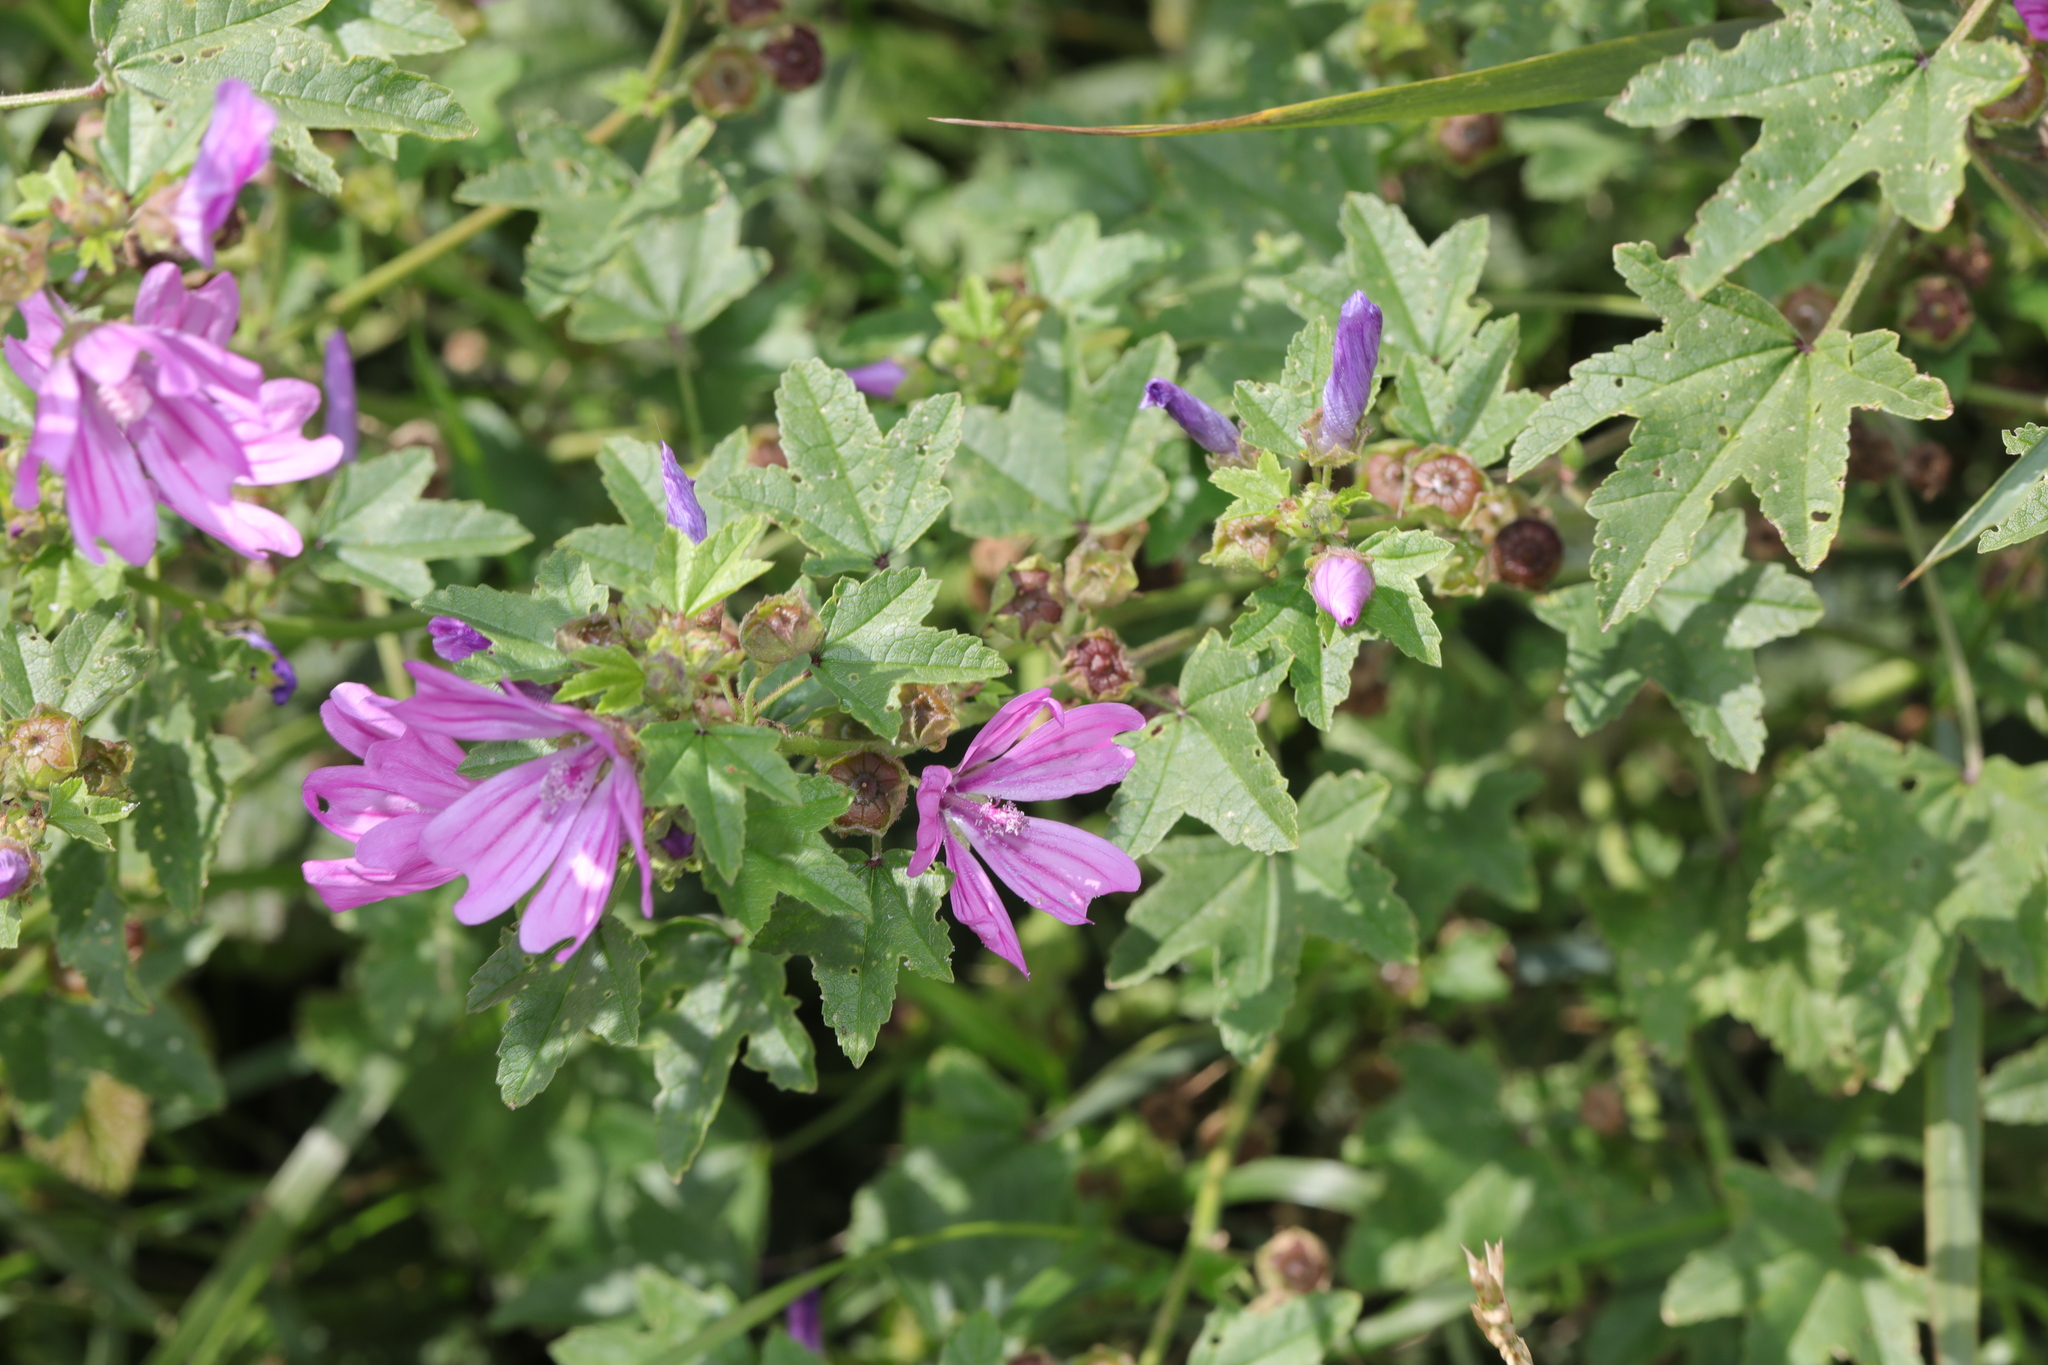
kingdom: Plantae
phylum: Tracheophyta
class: Magnoliopsida
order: Malvales
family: Malvaceae
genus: Malva
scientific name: Malva sylvestris
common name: Common mallow
